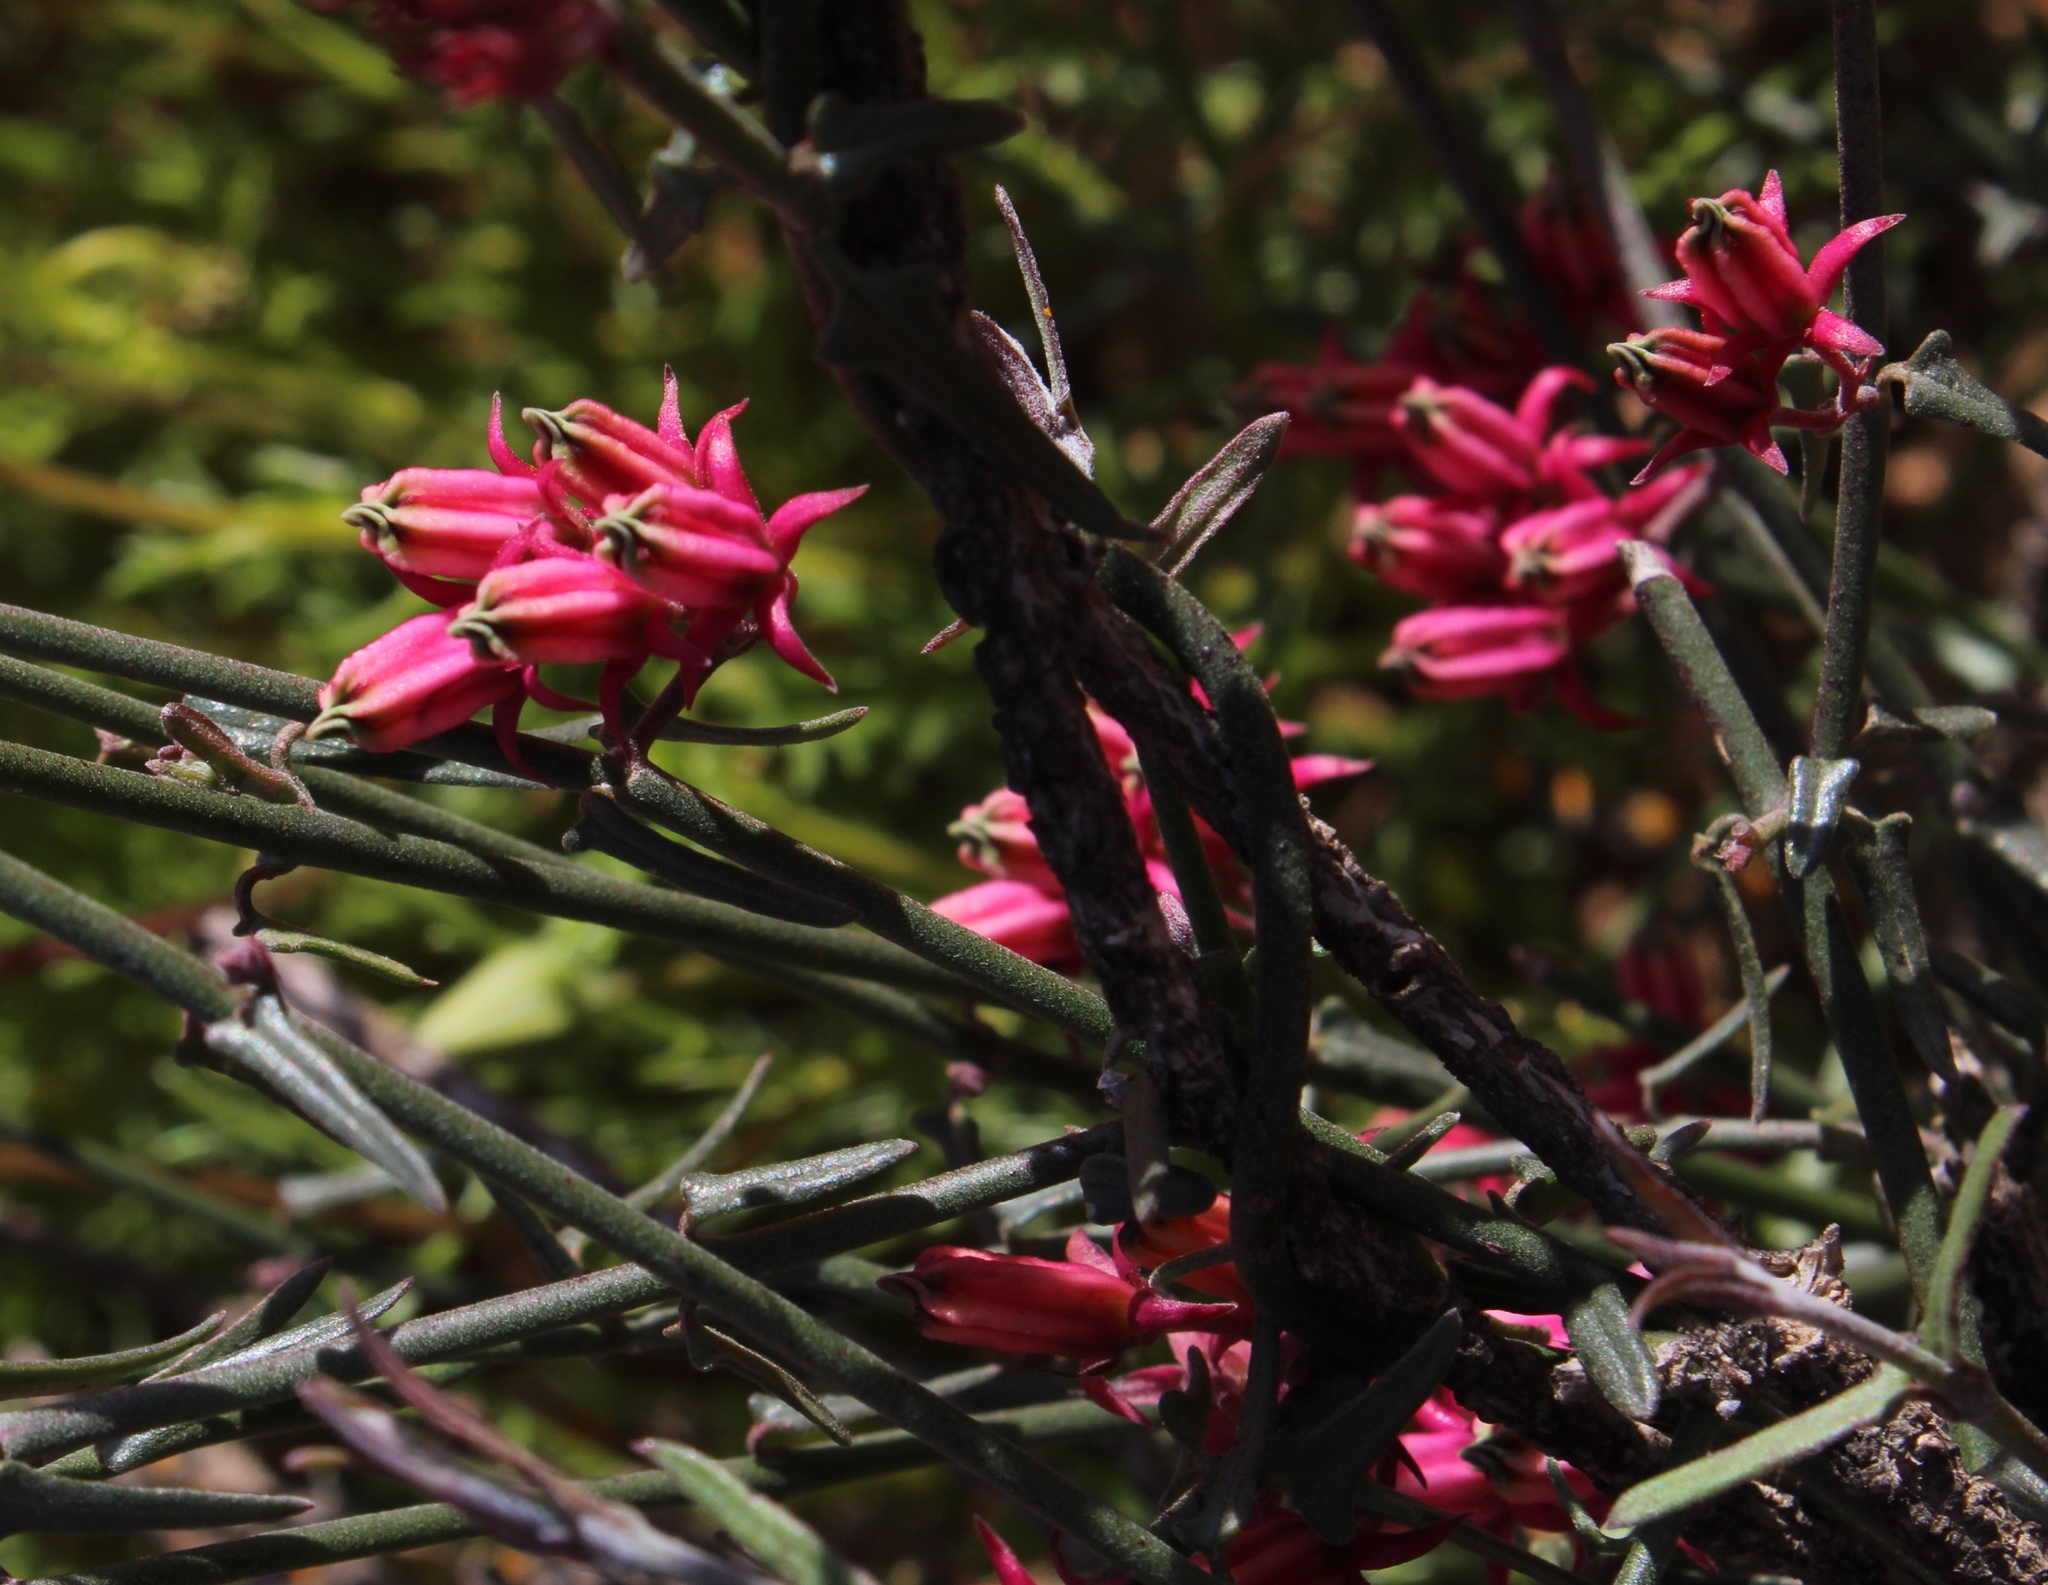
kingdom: Plantae
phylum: Tracheophyta
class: Magnoliopsida
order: Gentianales
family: Apocynaceae
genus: Microloma
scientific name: Microloma sagittatum
